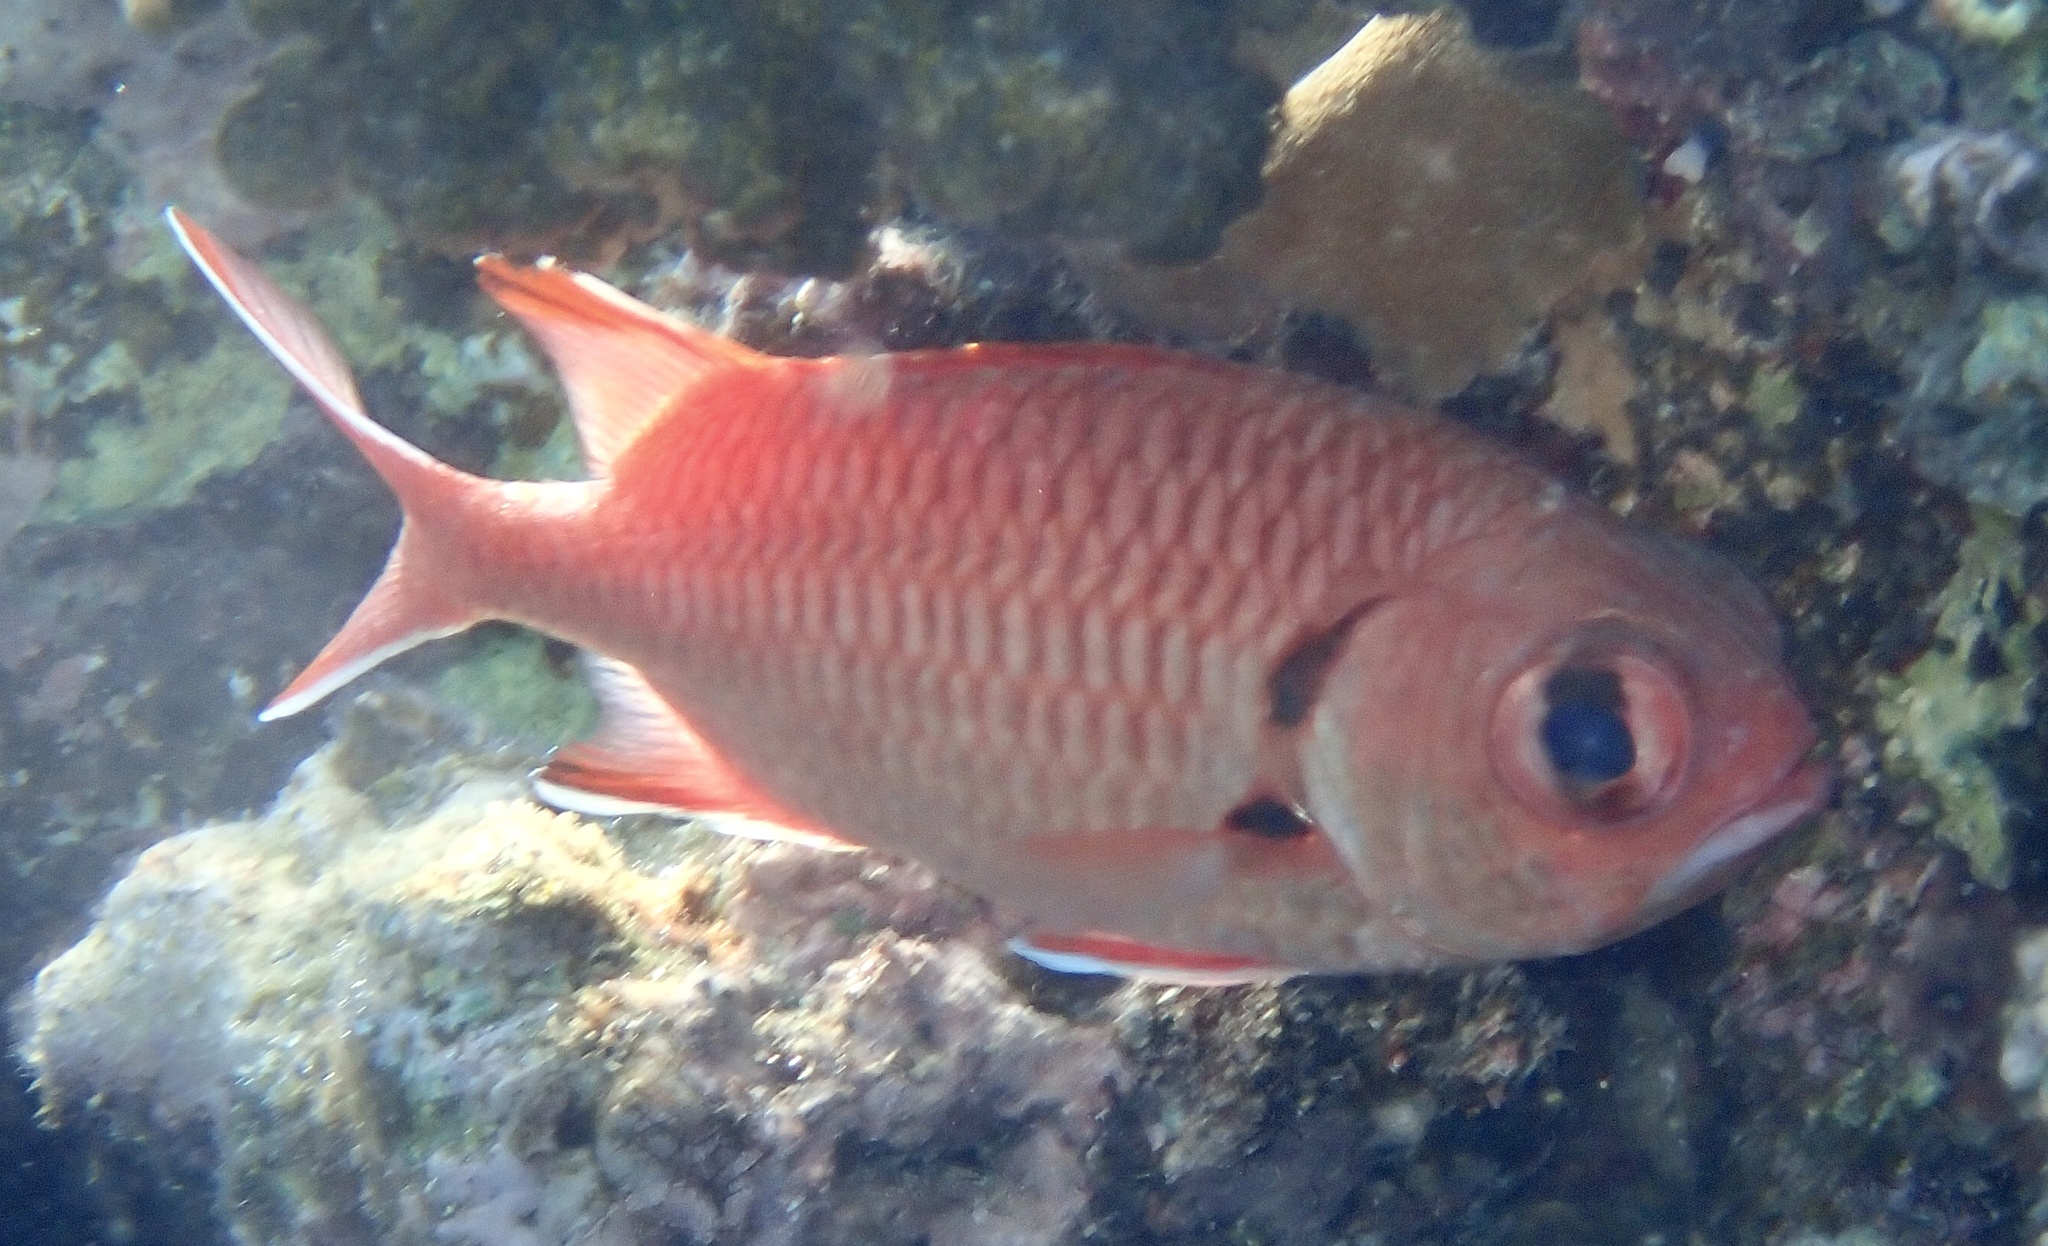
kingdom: Animalia
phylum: Chordata
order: Beryciformes
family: Holocentridae
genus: Myripristis
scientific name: Myripristis murdjan
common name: Big-eye soldierfish
